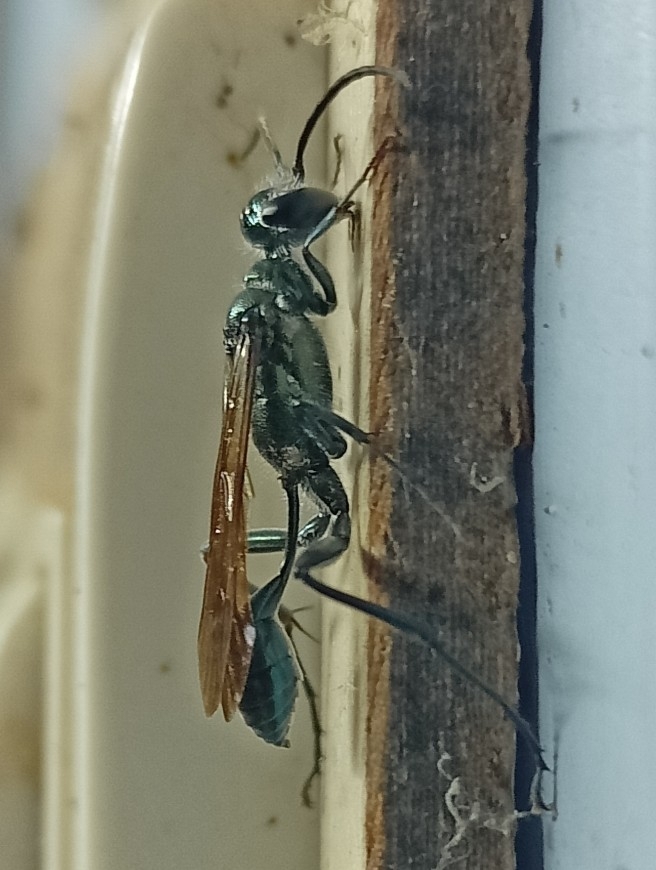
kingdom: Animalia
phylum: Arthropoda
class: Insecta
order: Hymenoptera
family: Sphecidae
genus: Chalybion
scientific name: Chalybion bengalense
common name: Mud dauber
